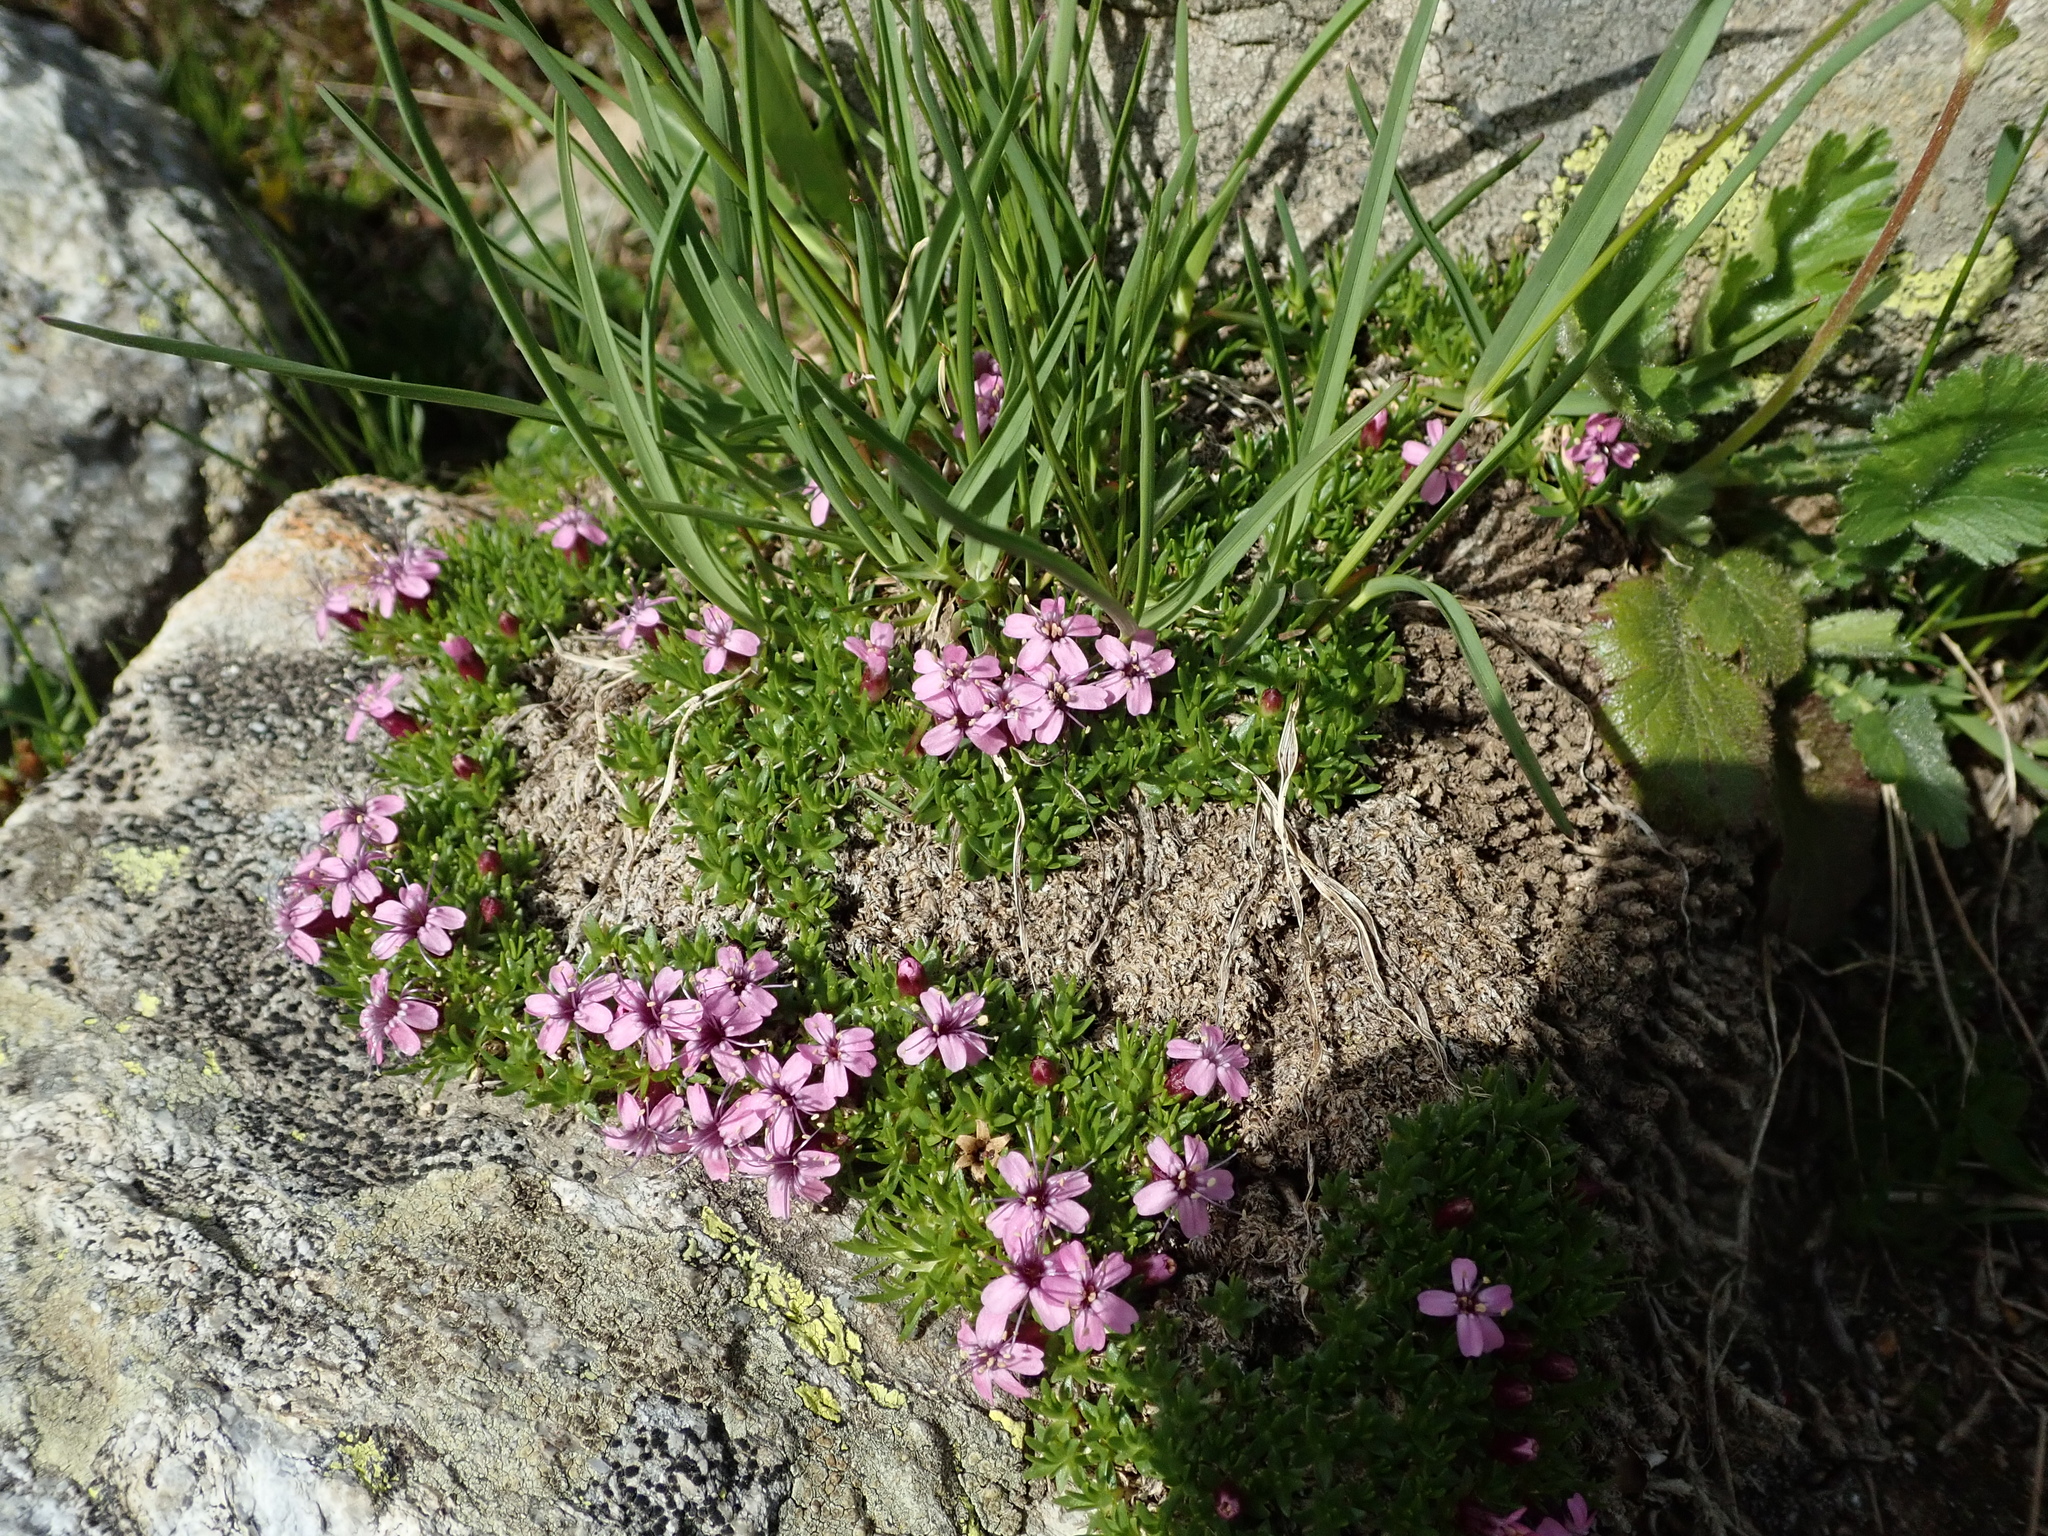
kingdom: Plantae
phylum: Tracheophyta
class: Magnoliopsida
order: Caryophyllales
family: Caryophyllaceae
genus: Silene
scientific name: Silene acaulis
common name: Moss campion
